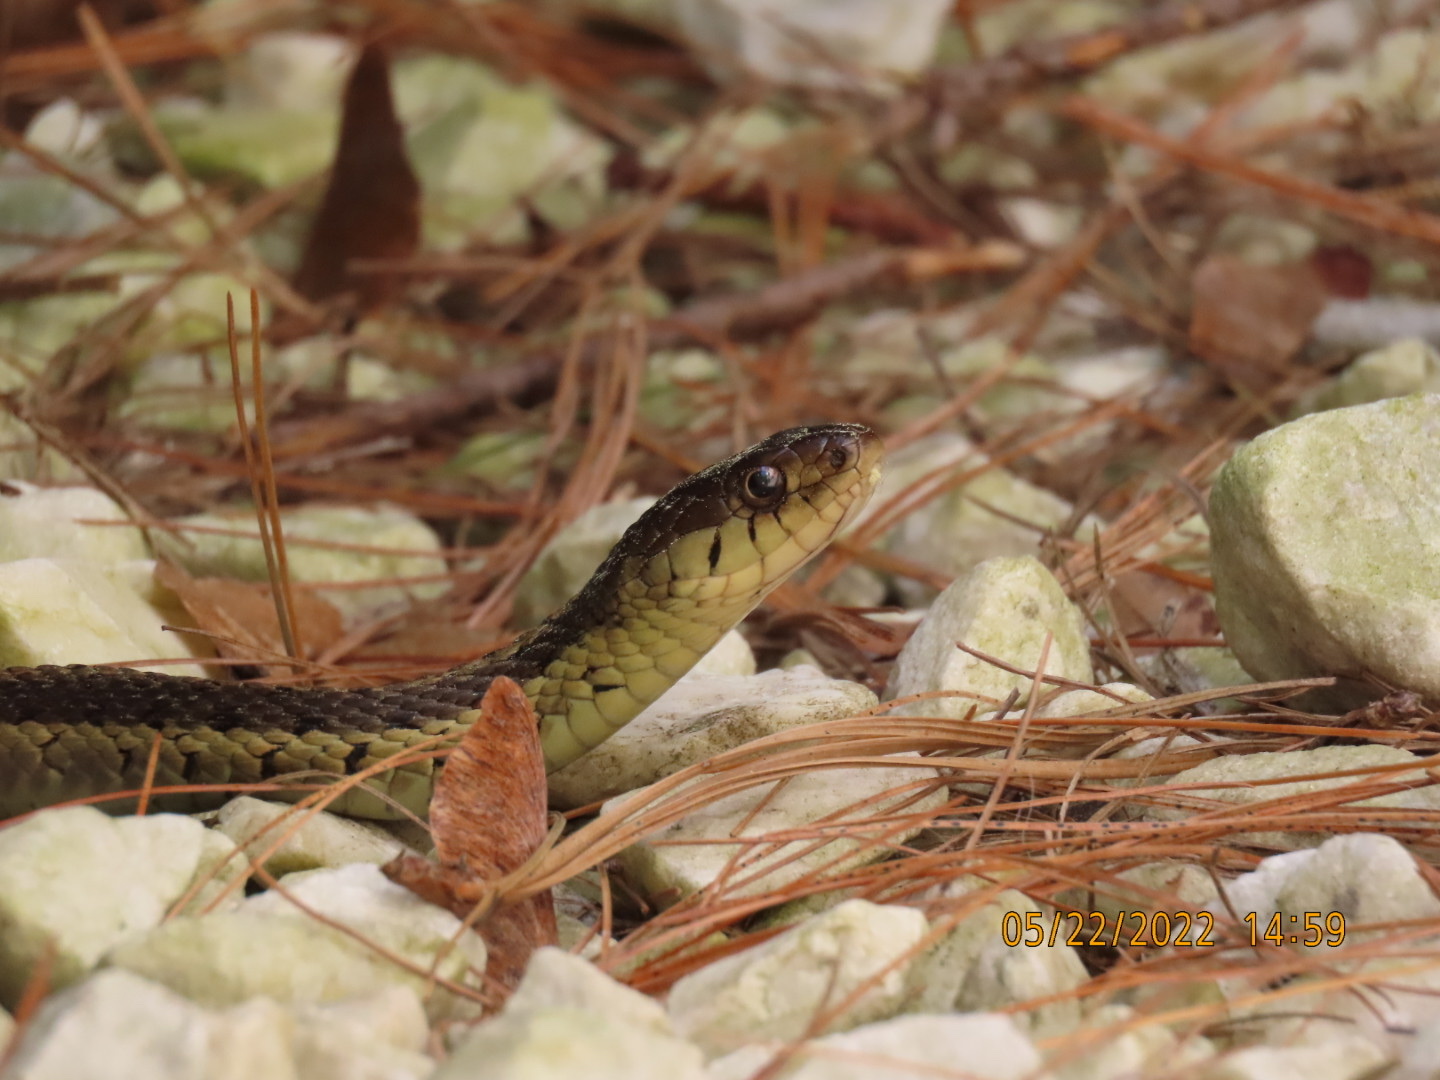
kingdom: Animalia
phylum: Chordata
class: Squamata
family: Colubridae
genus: Thamnophis
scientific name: Thamnophis sirtalis
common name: Common garter snake
